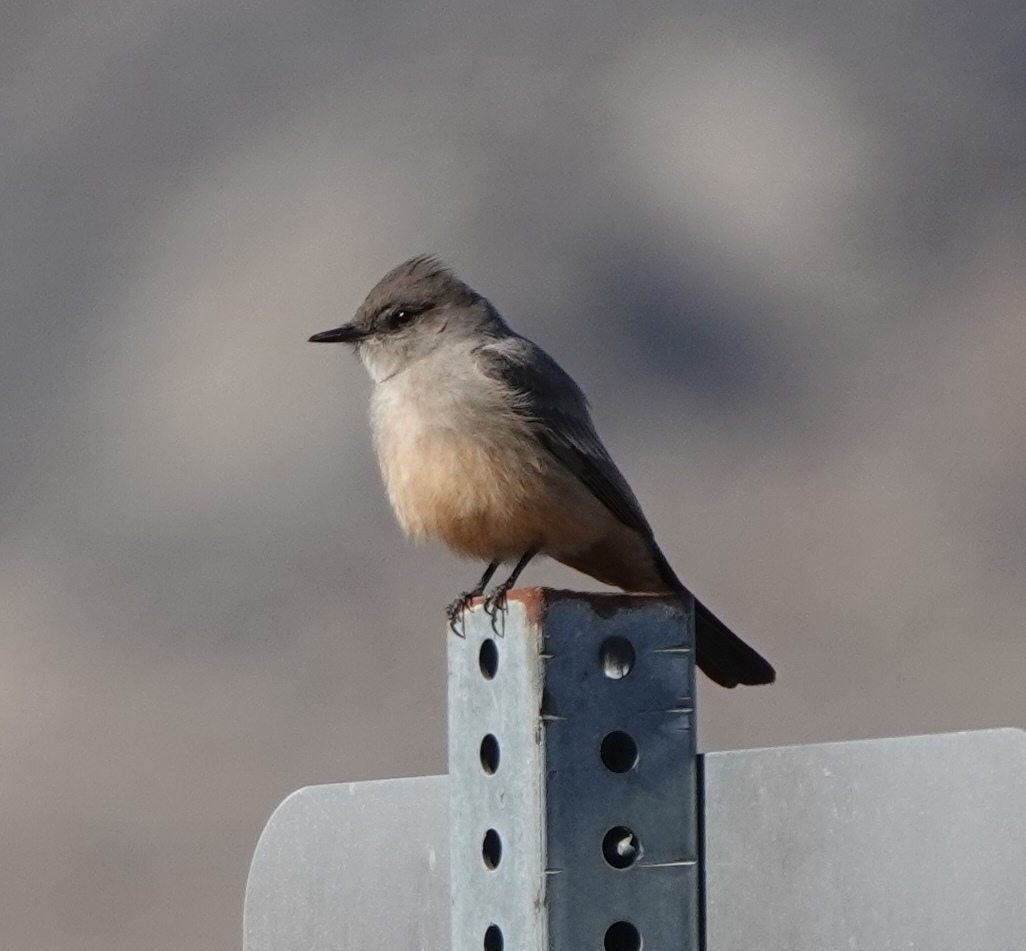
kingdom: Animalia
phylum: Chordata
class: Aves
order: Passeriformes
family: Tyrannidae
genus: Sayornis
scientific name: Sayornis saya
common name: Say's phoebe
